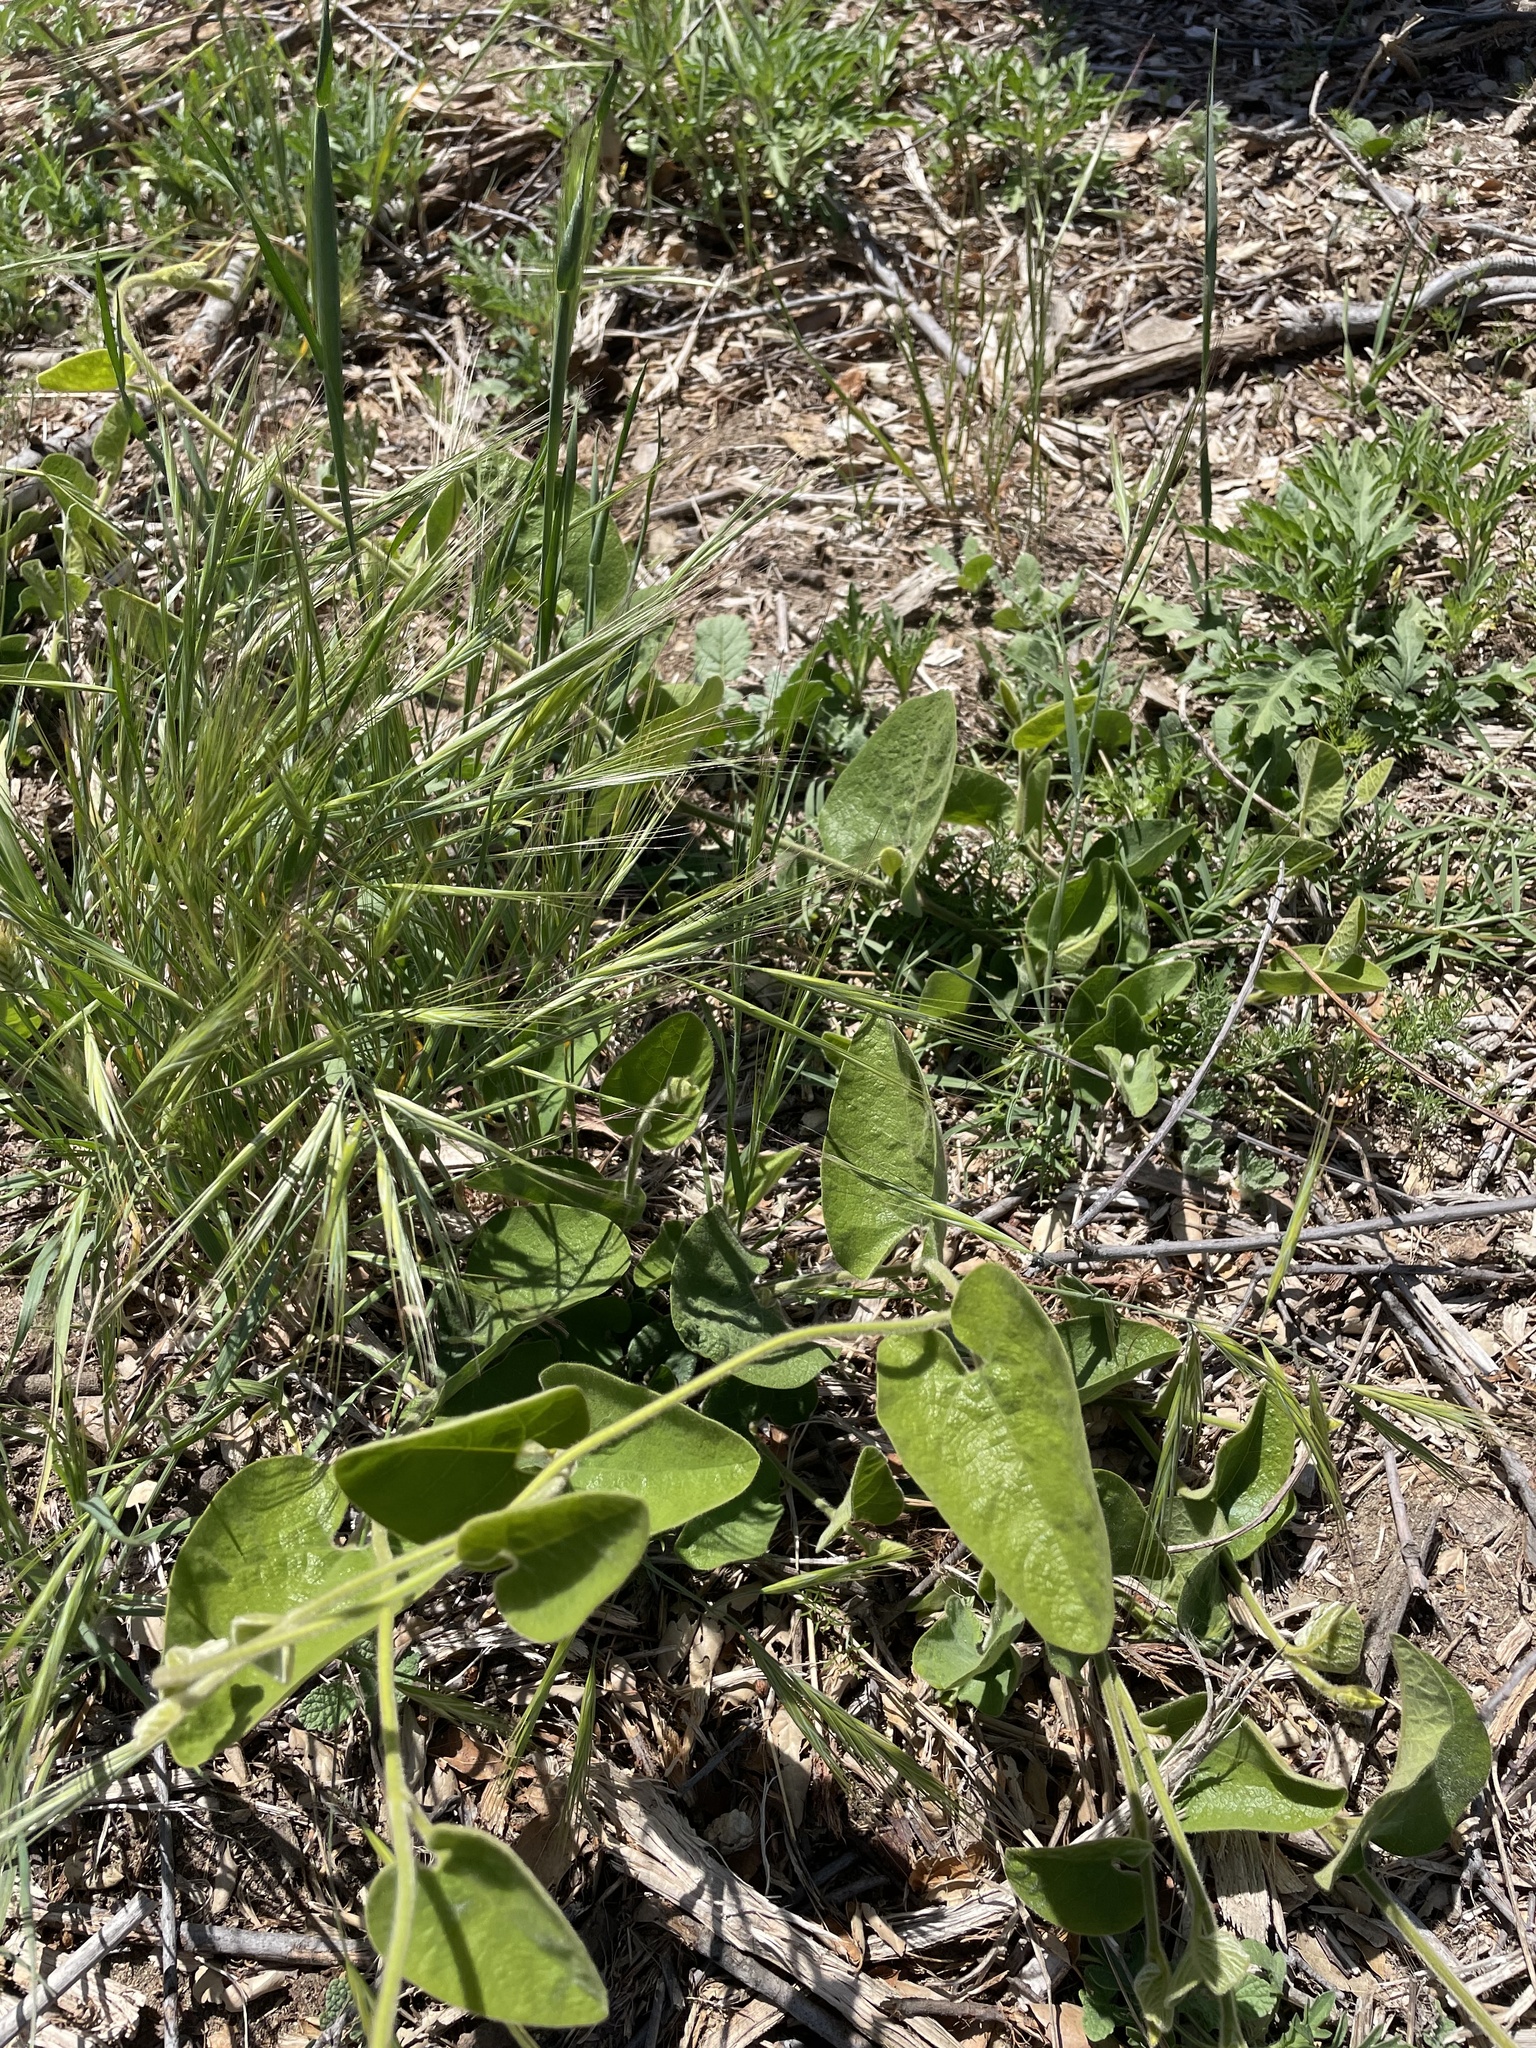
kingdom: Plantae
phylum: Tracheophyta
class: Magnoliopsida
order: Piperales
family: Aristolochiaceae
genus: Isotrema
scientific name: Isotrema californicum
